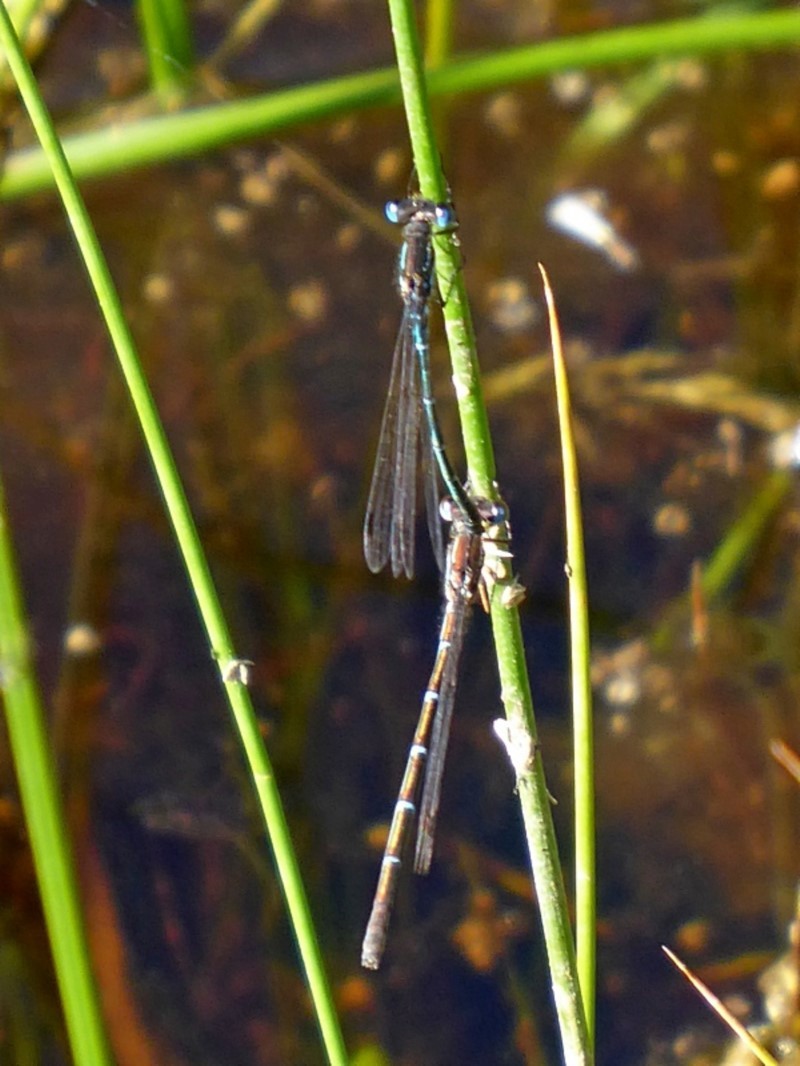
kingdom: Animalia
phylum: Arthropoda
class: Insecta
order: Odonata
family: Lestidae
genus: Austrolestes
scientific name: Austrolestes psyche
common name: Cup ringtail
